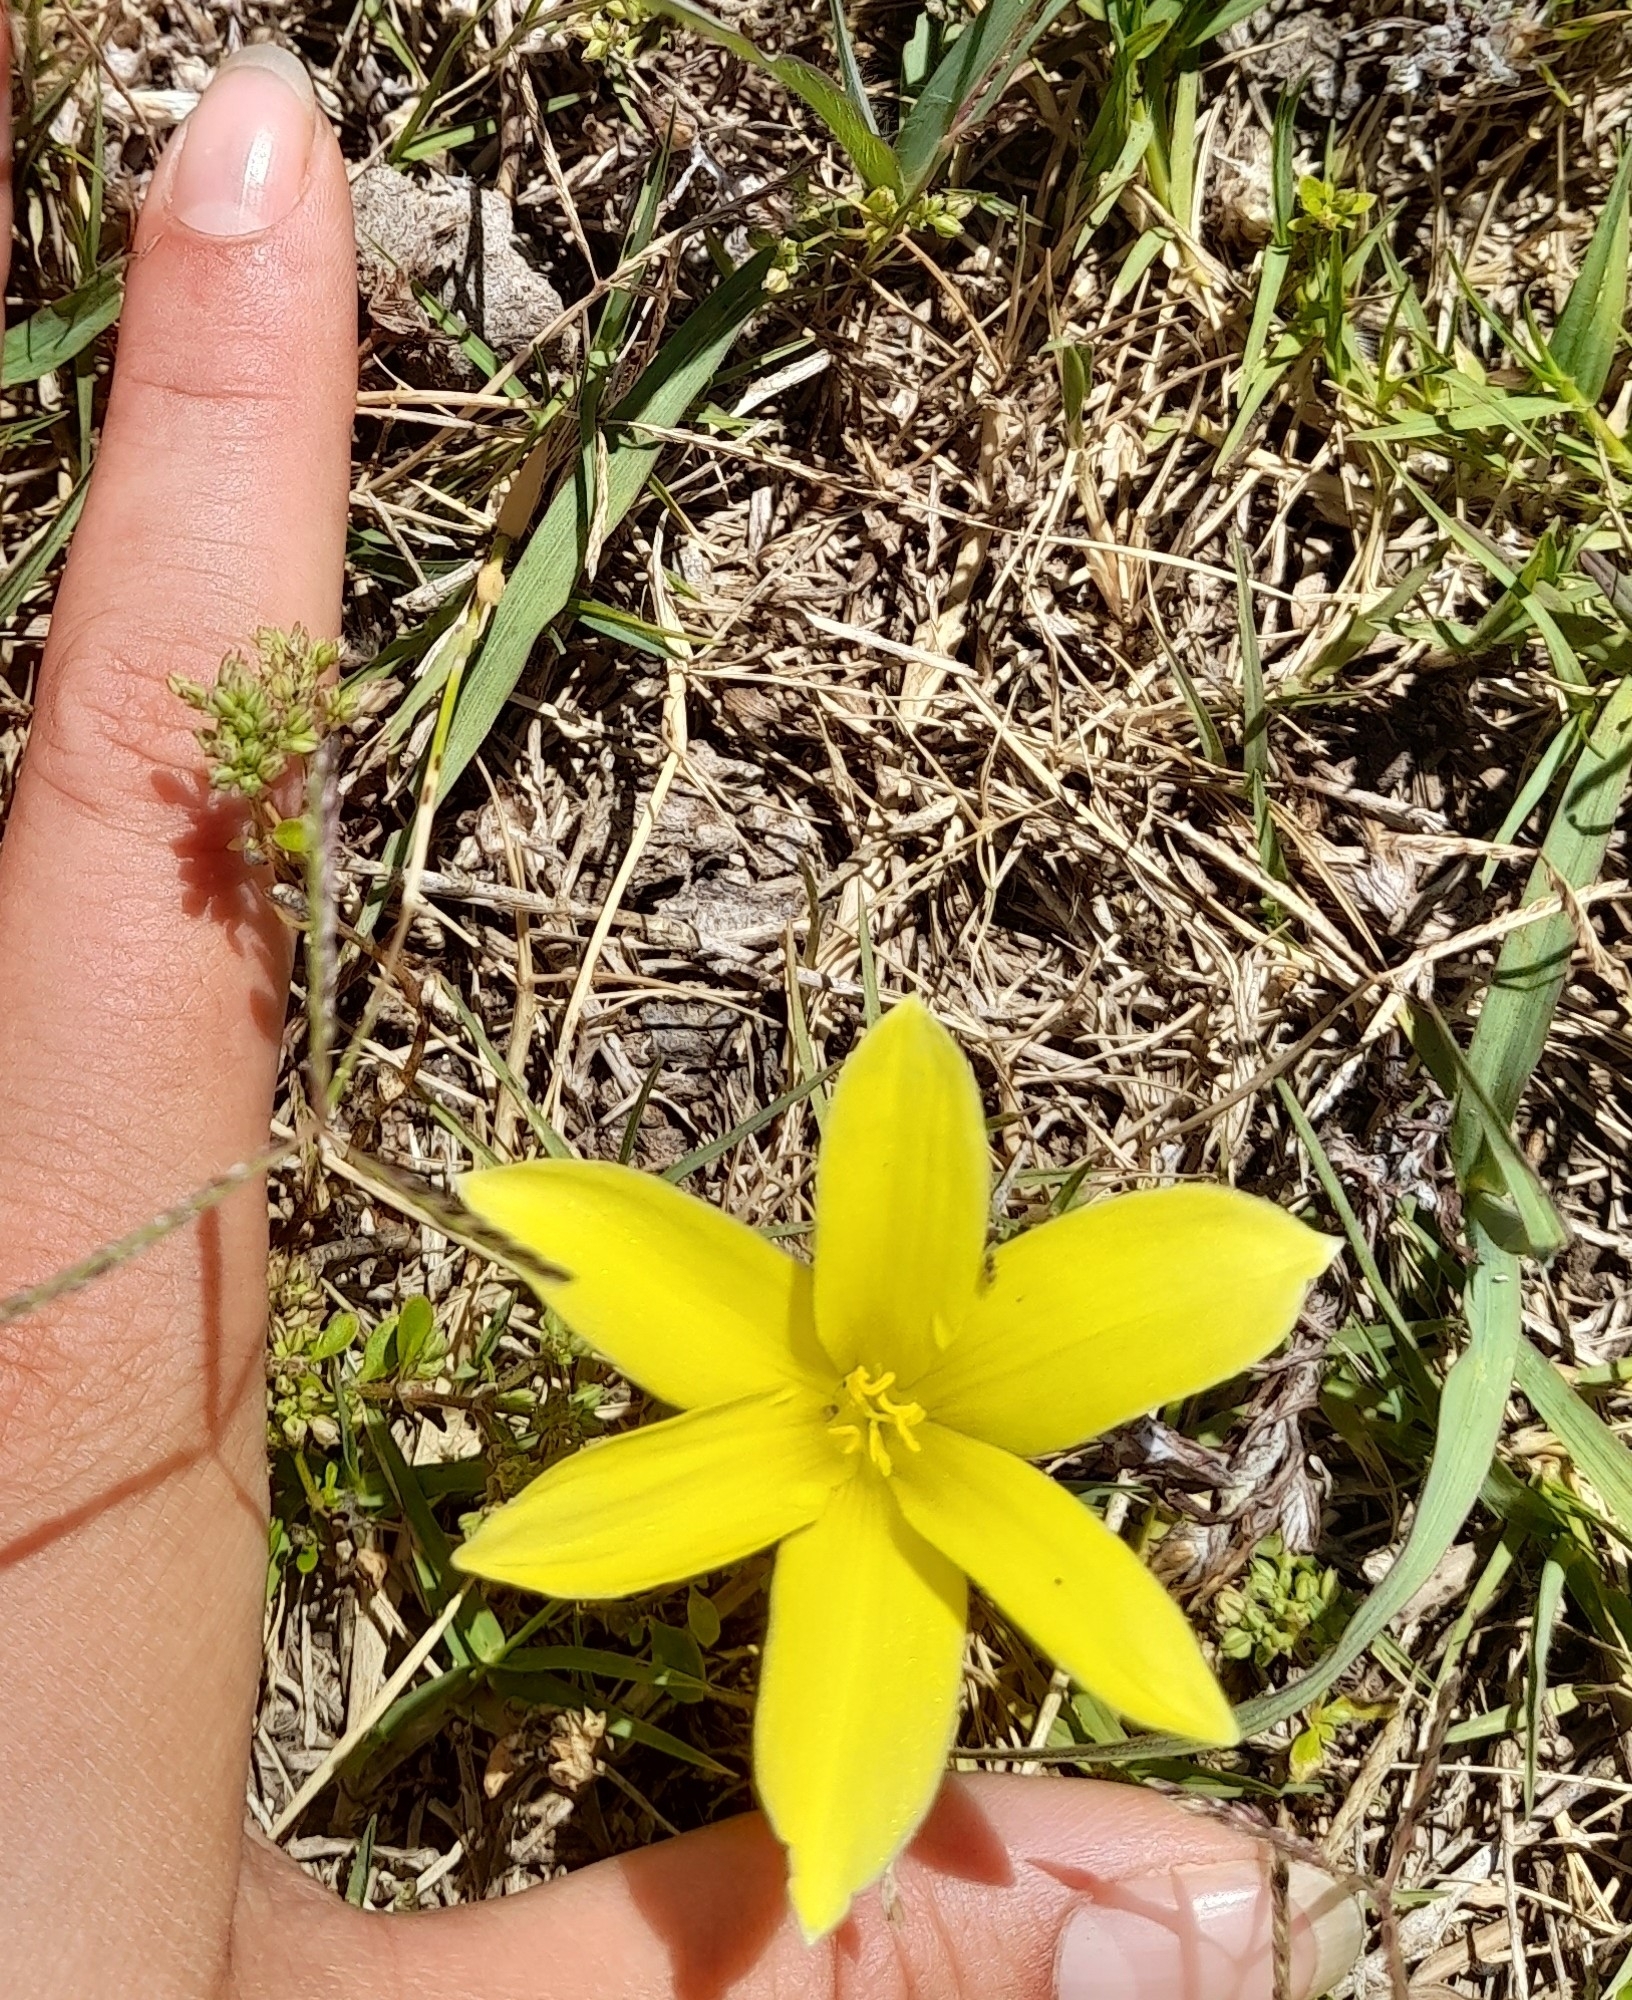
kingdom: Plantae
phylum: Tracheophyta
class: Liliopsida
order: Asparagales
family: Amaryllidaceae
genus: Zephyranthes
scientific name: Zephyranthes americana
